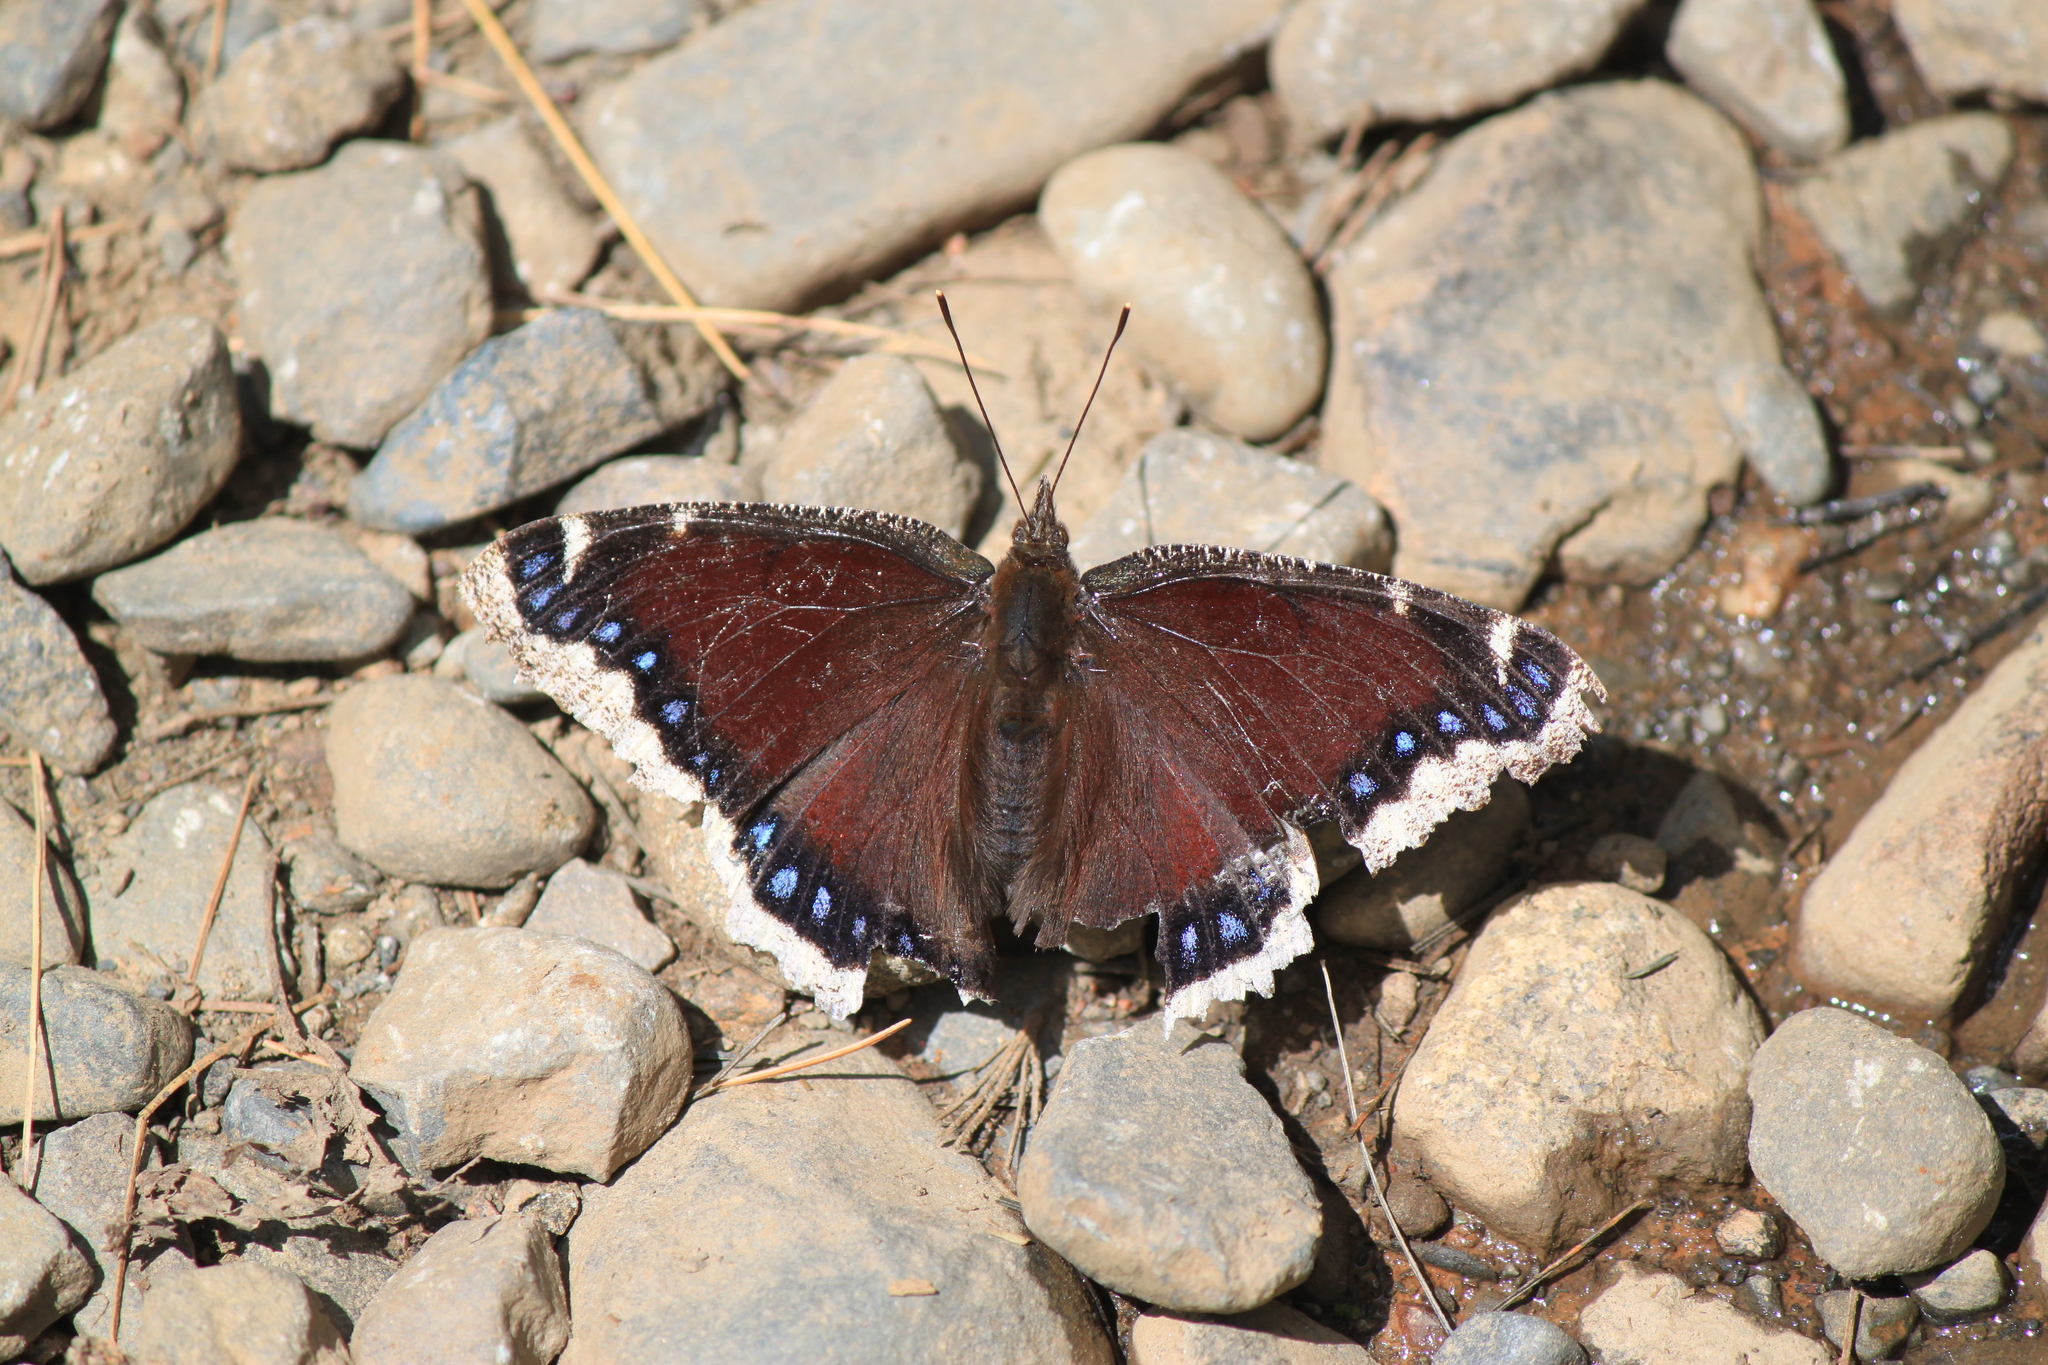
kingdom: Animalia
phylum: Arthropoda
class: Insecta
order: Lepidoptera
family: Nymphalidae
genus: Nymphalis
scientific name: Nymphalis antiopa
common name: Camberwell beauty
